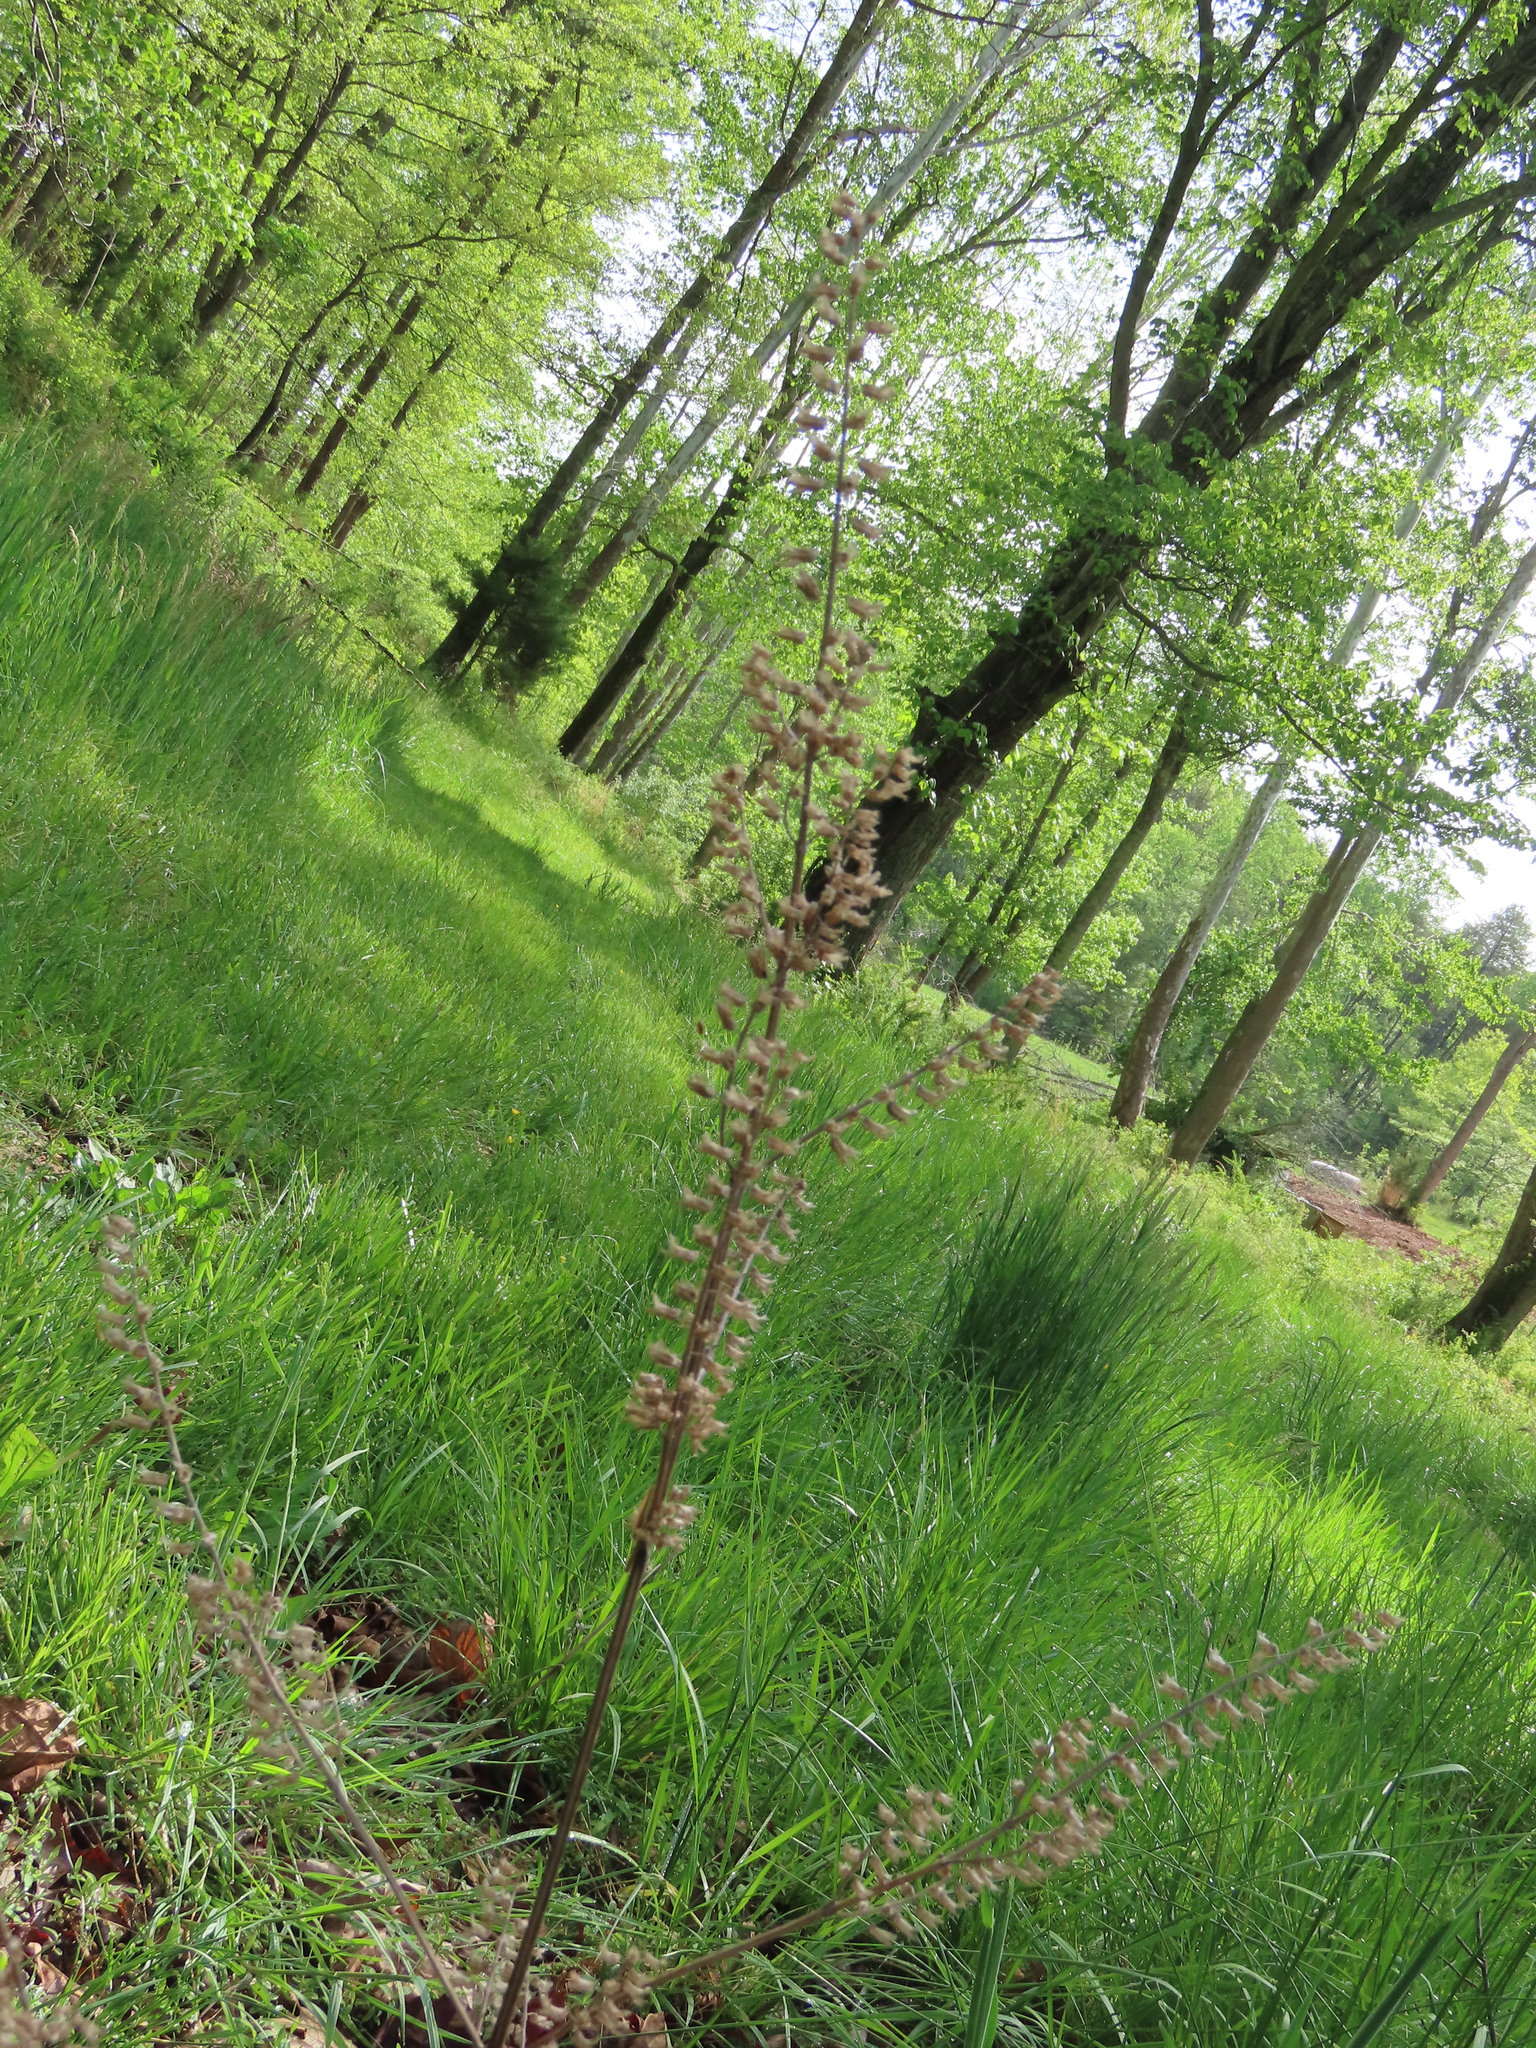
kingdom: Plantae
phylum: Tracheophyta
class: Magnoliopsida
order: Lamiales
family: Lamiaceae
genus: Perilla
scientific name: Perilla frutescens
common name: Perilla
